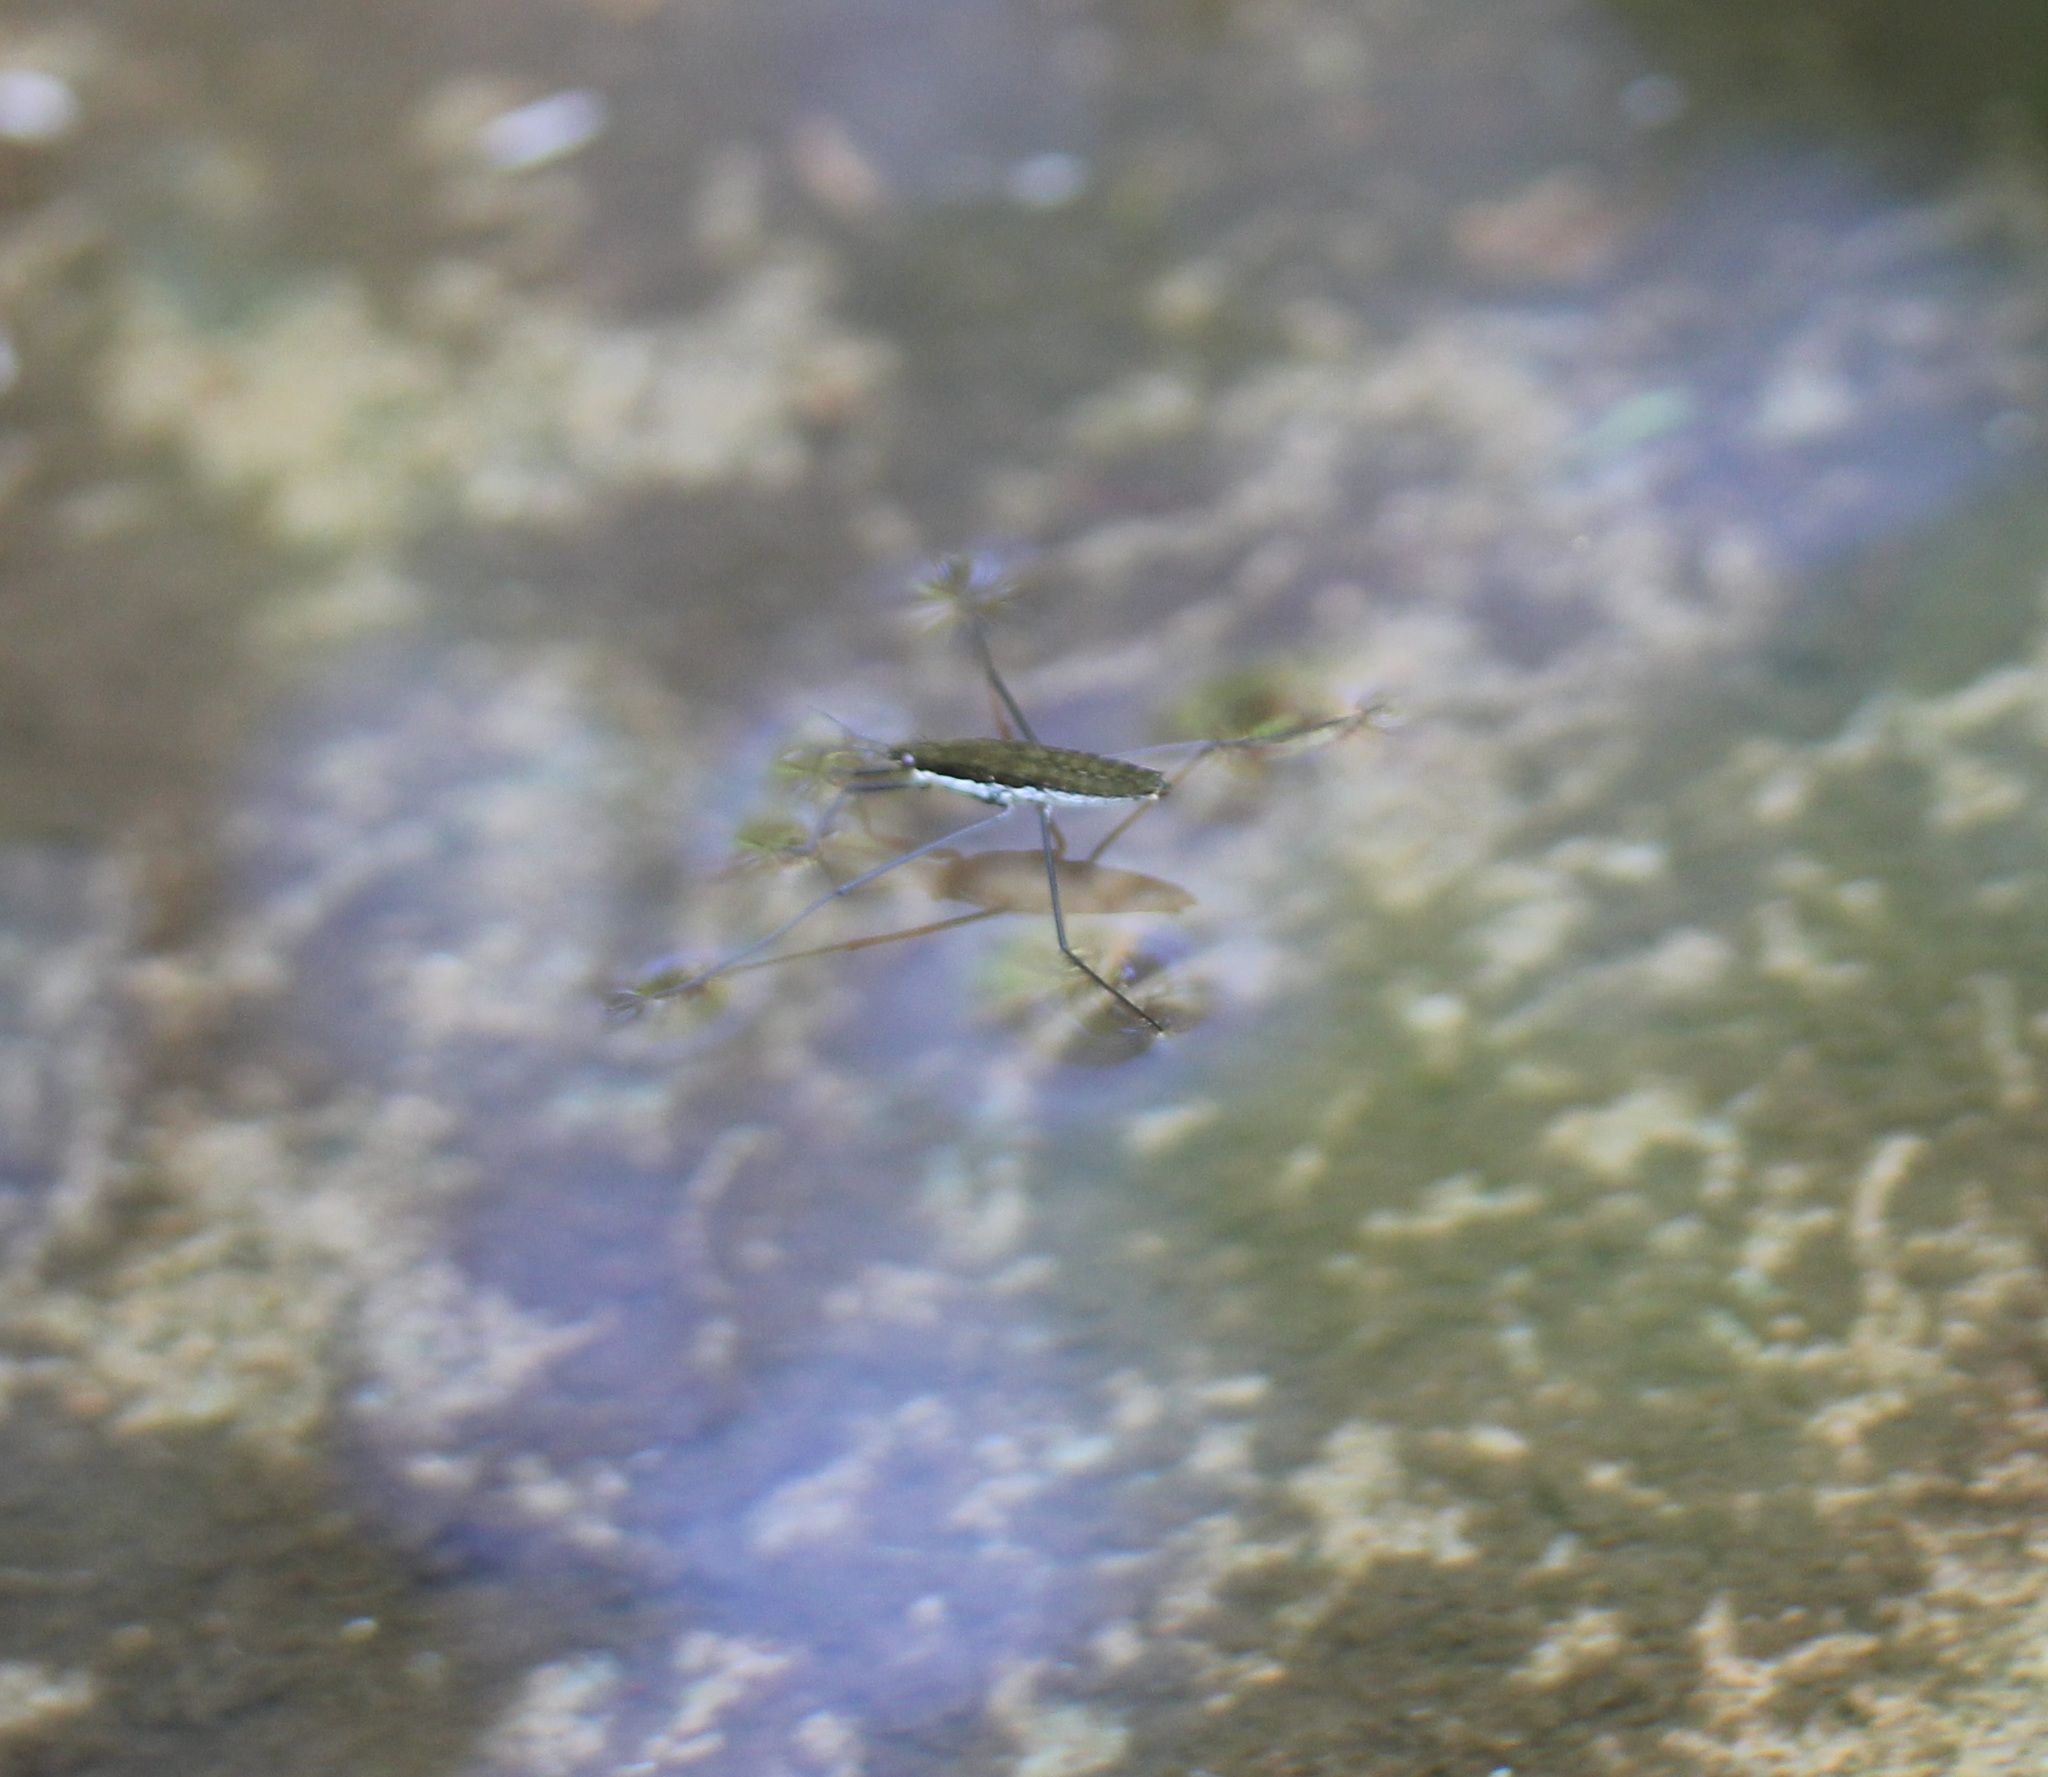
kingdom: Animalia
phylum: Arthropoda
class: Insecta
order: Hemiptera
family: Gerridae
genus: Aquarius
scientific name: Aquarius remigis
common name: Common water strider
